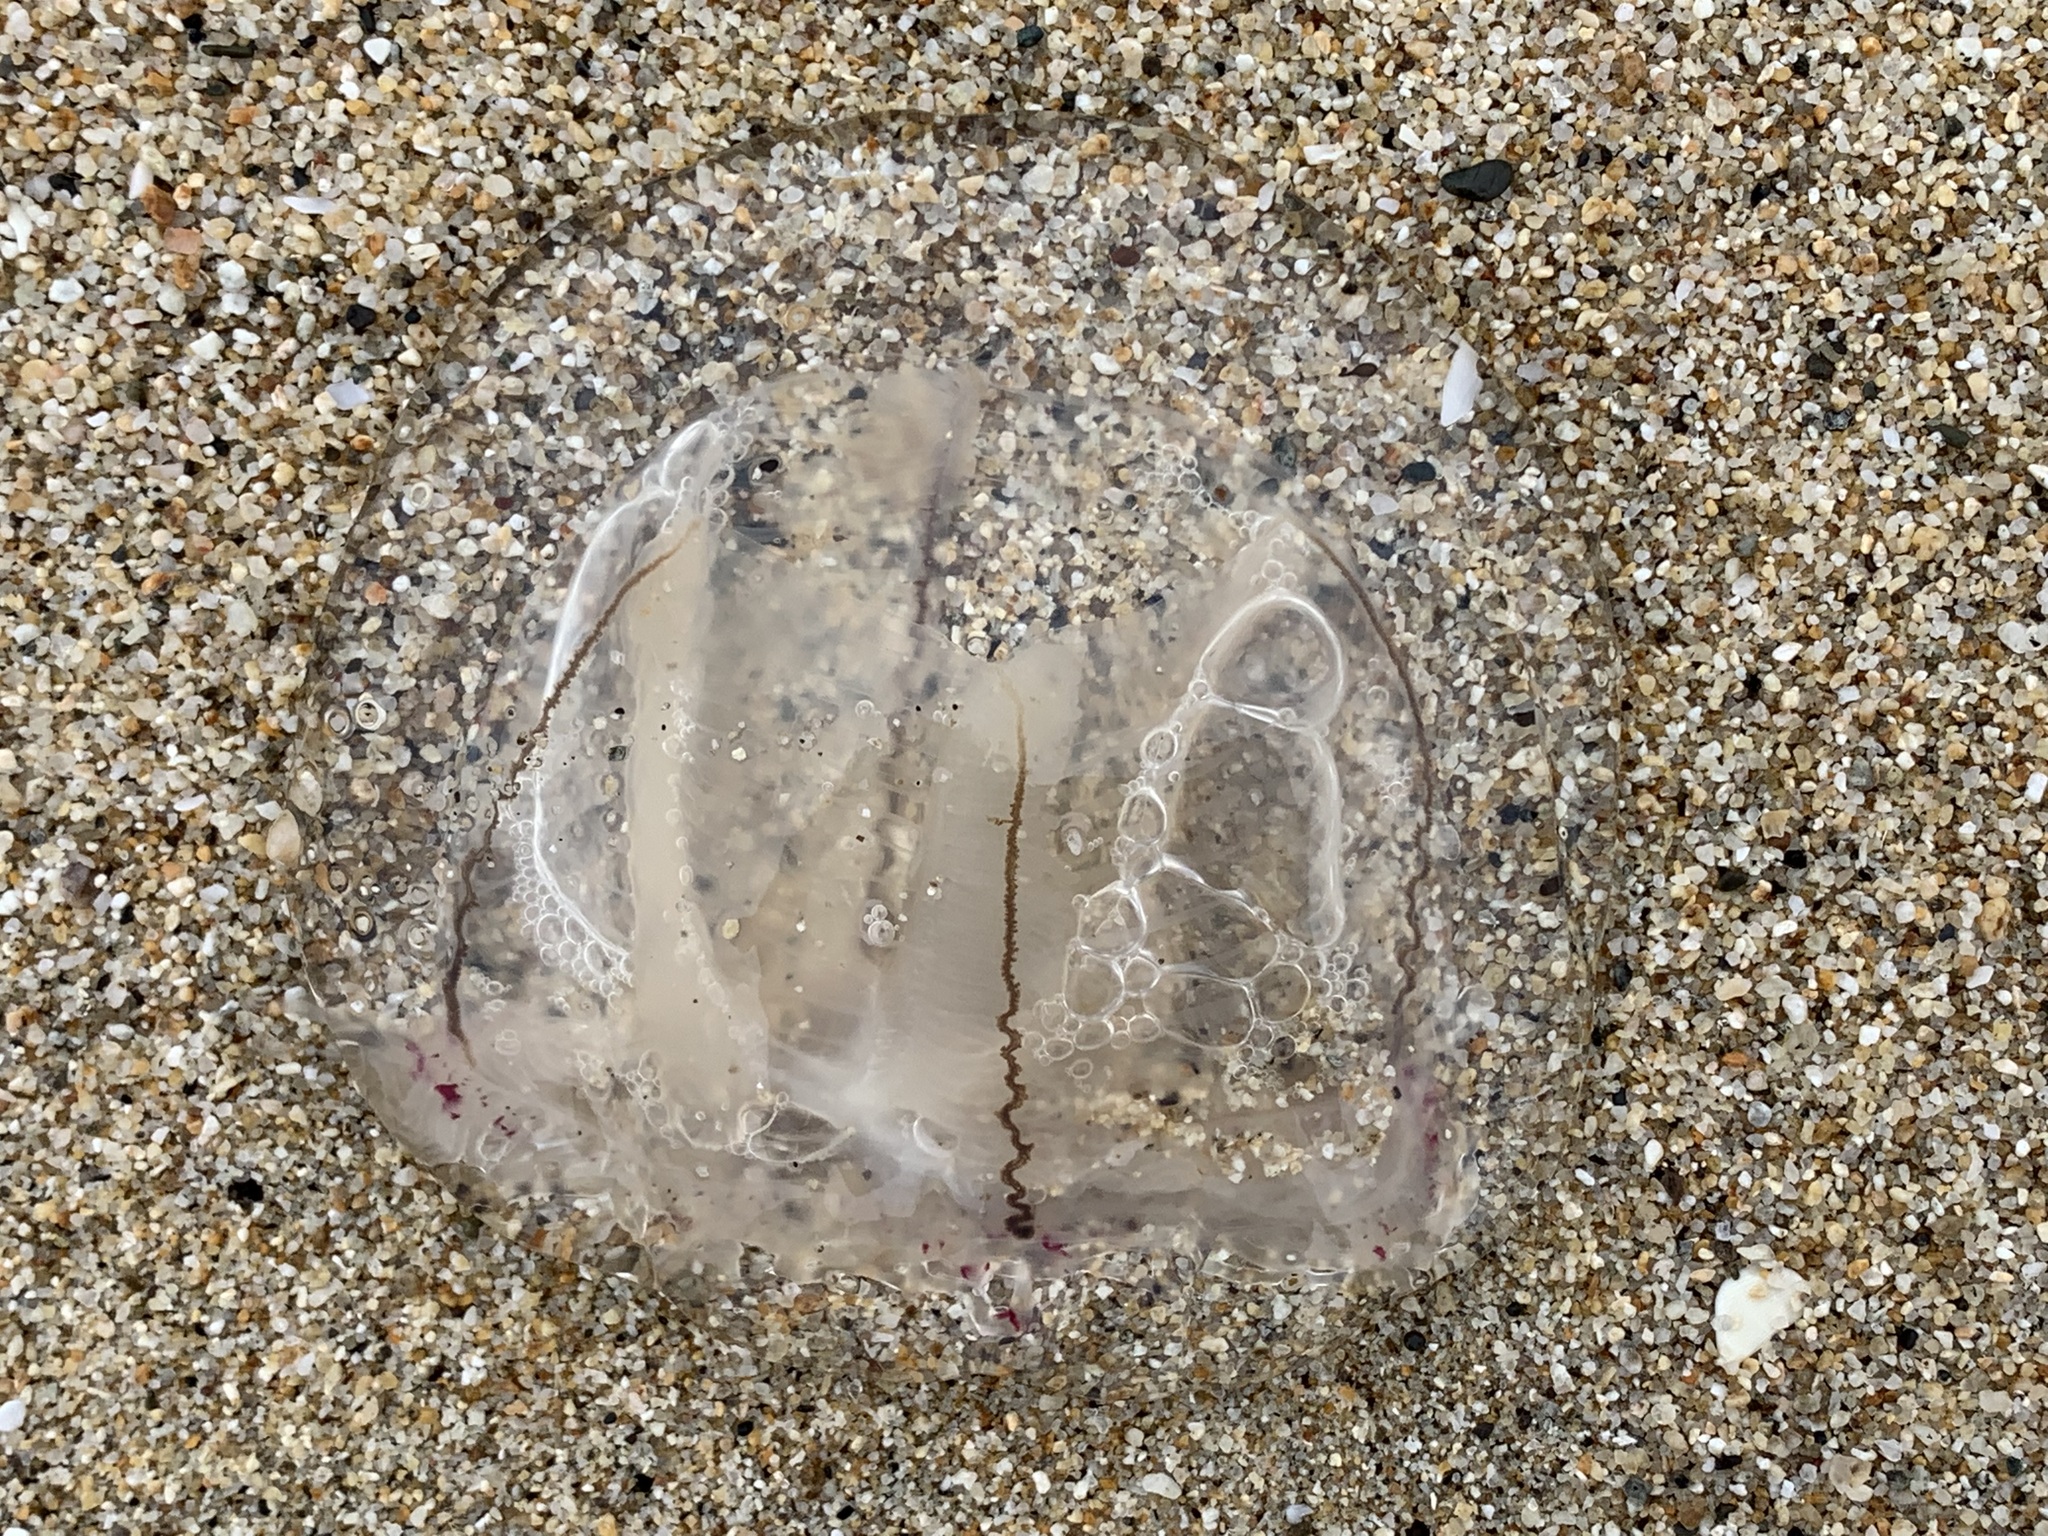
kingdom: Animalia
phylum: Cnidaria
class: Hydrozoa
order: Anthoathecata
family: Corynidae
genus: Scrippsia
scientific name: Scrippsia pacifica
